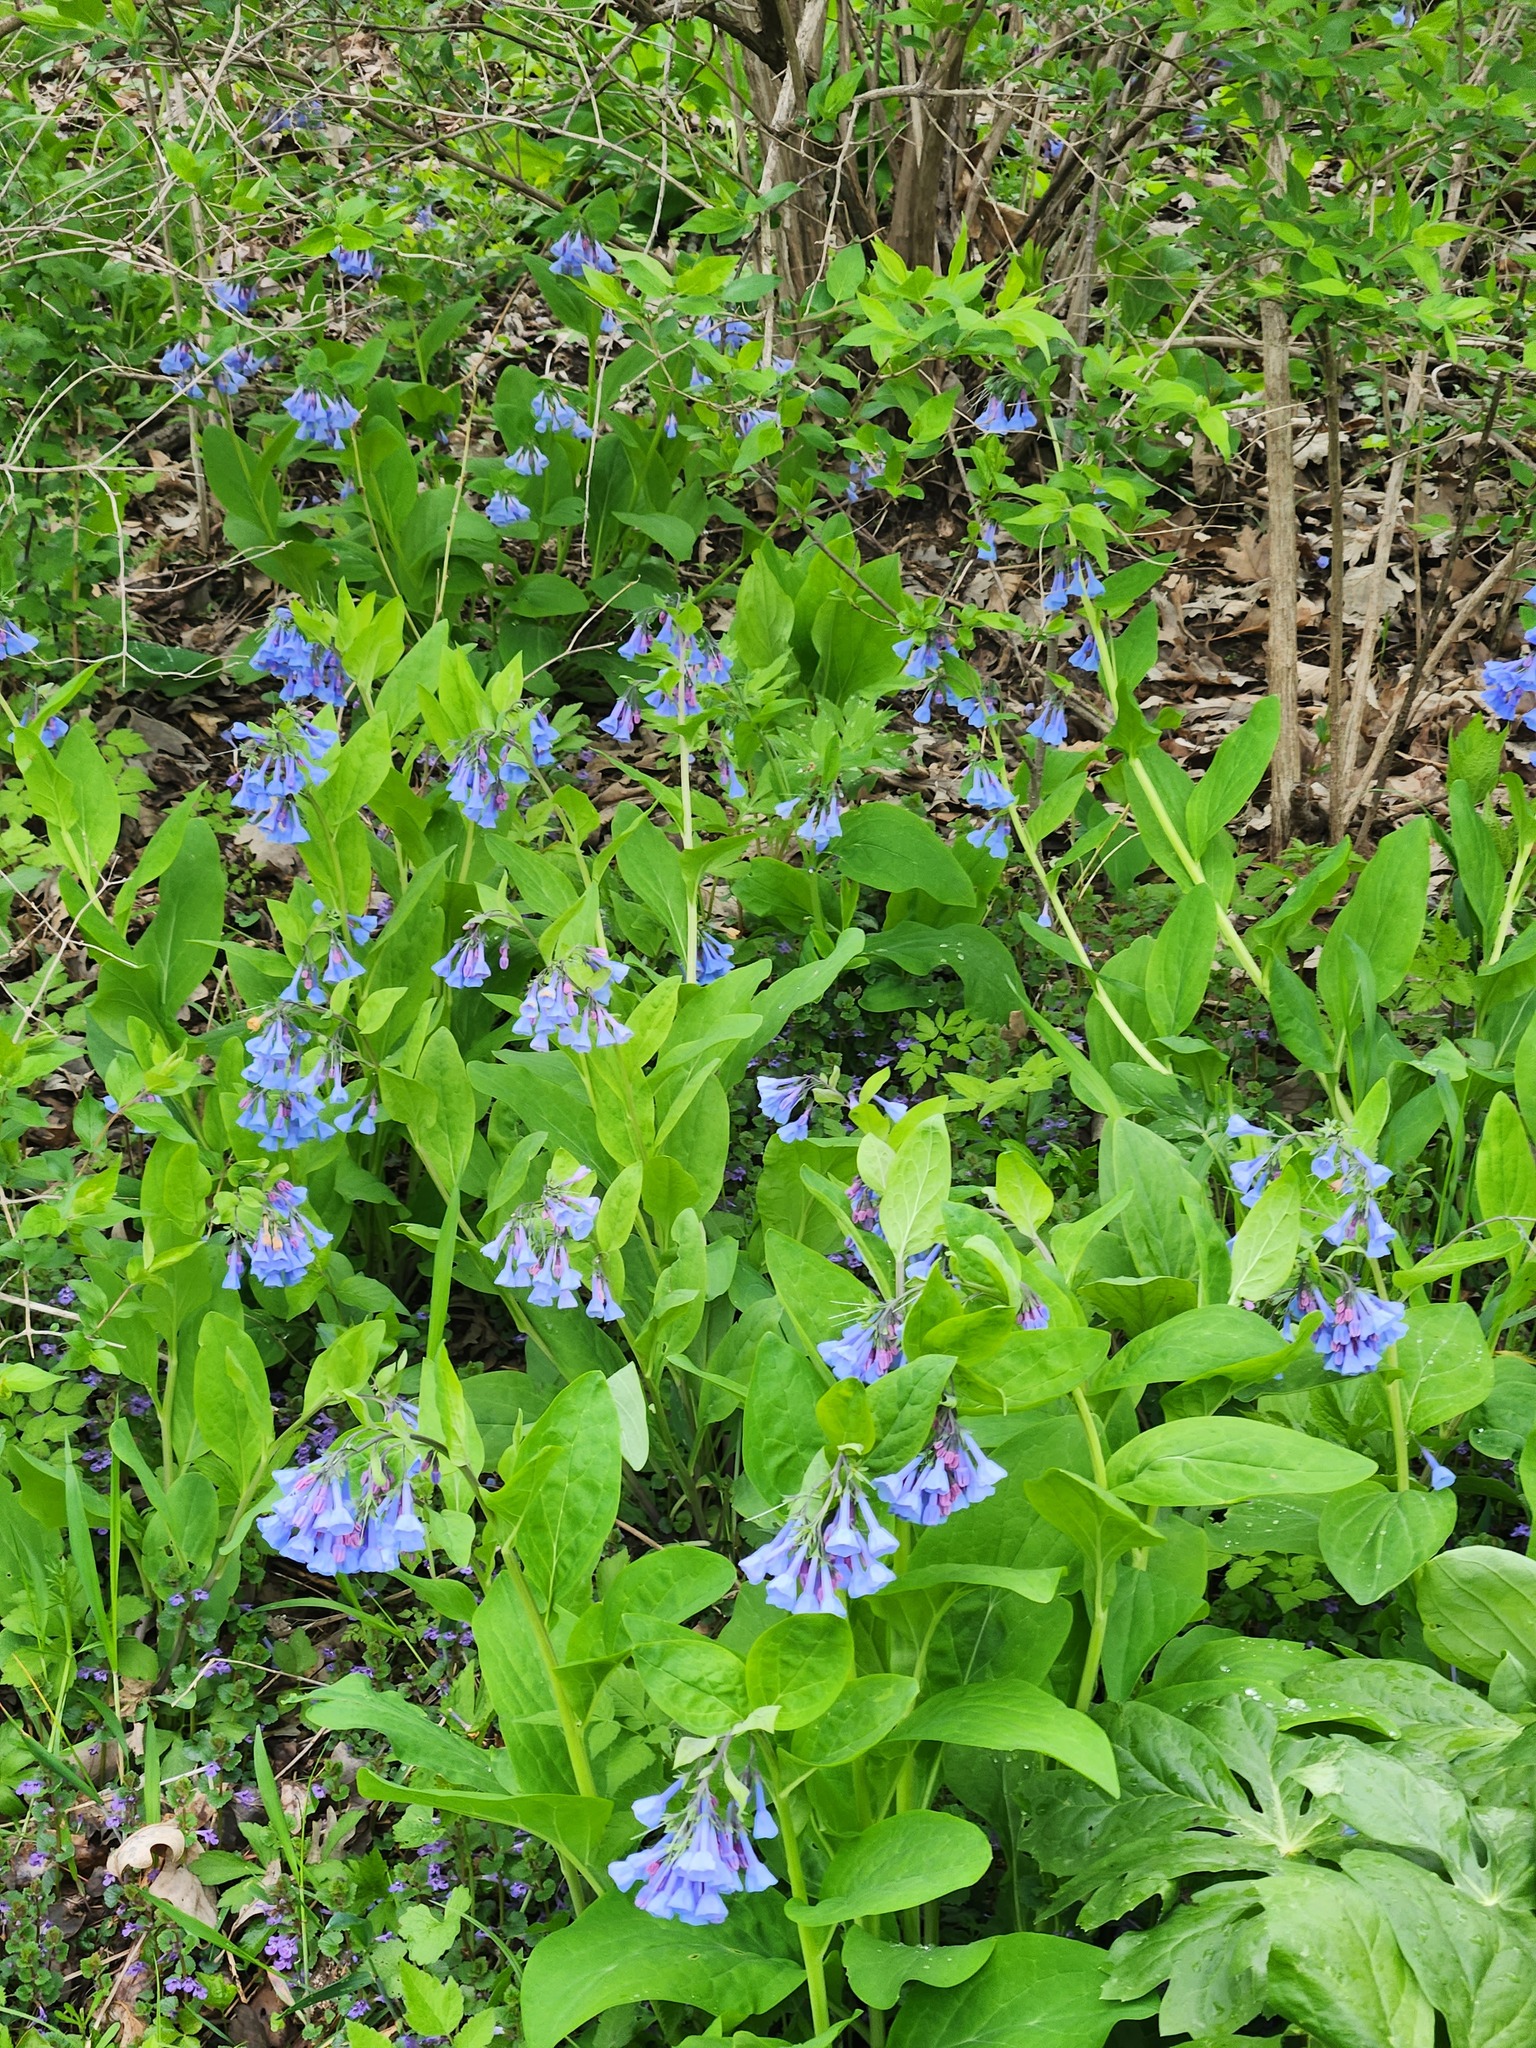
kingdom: Plantae
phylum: Tracheophyta
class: Magnoliopsida
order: Boraginales
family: Boraginaceae
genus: Mertensia
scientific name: Mertensia virginica
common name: Virginia bluebells
